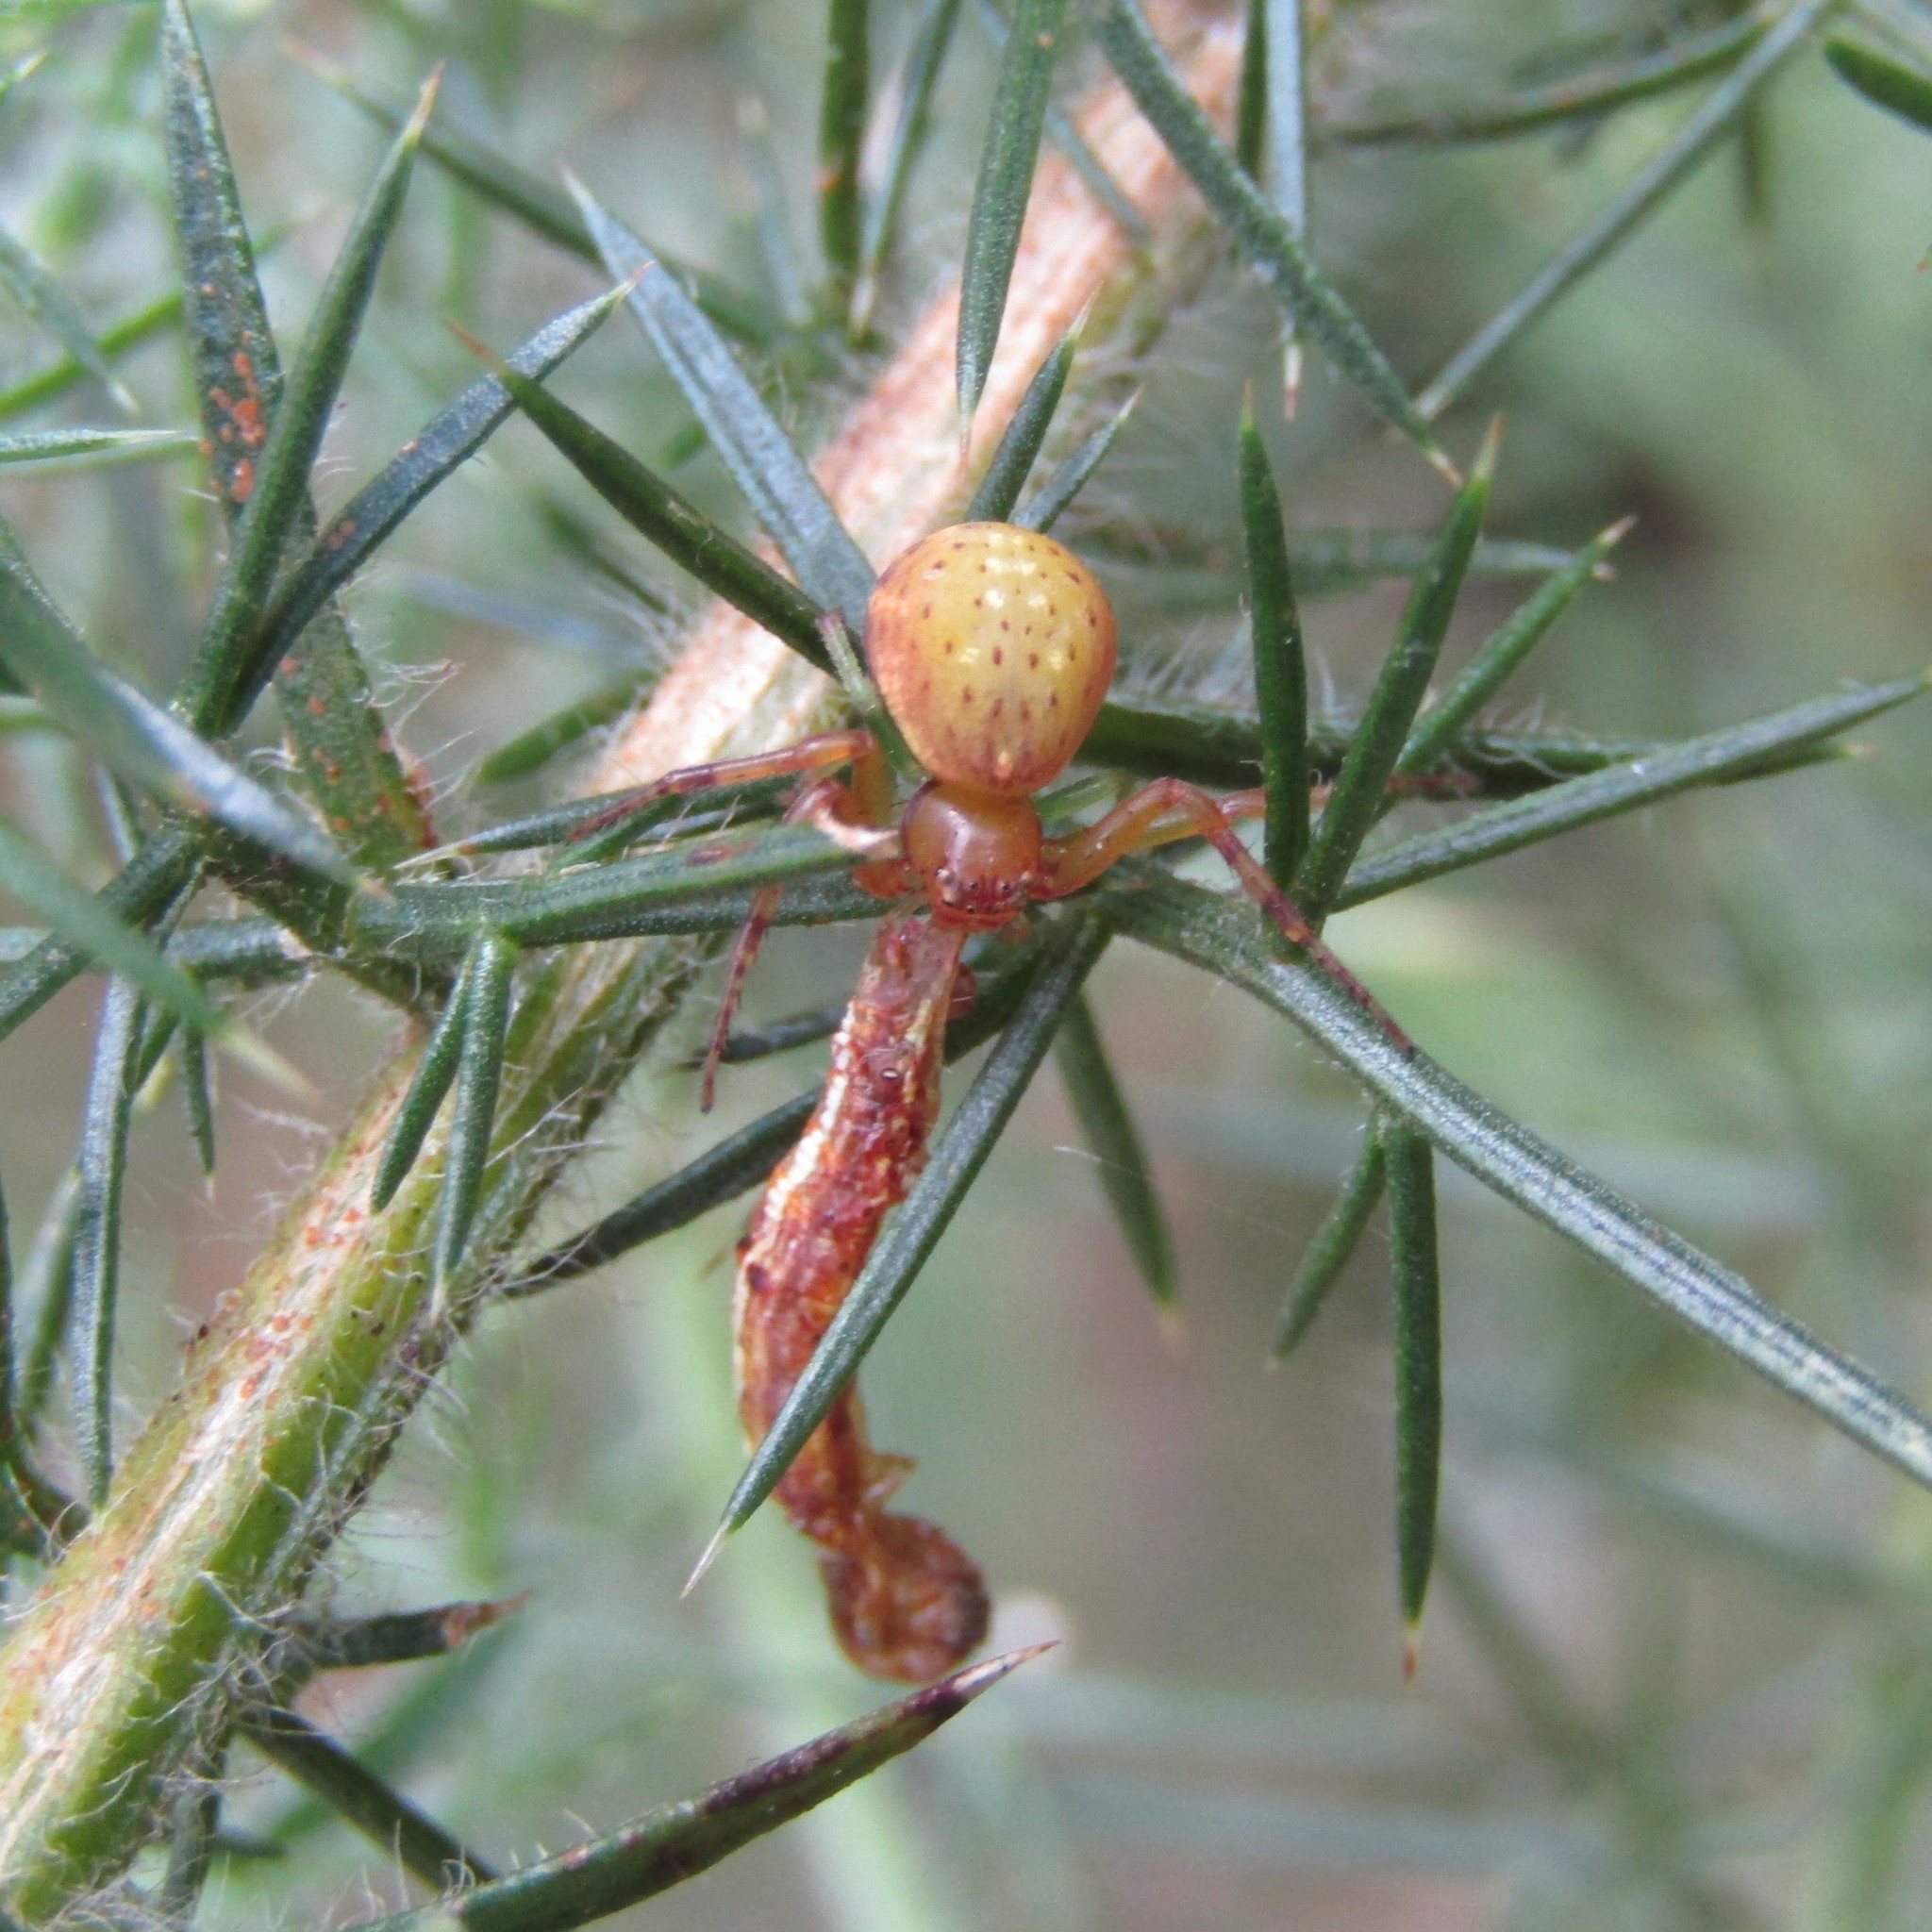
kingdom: Animalia
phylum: Arthropoda
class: Arachnida
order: Araneae
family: Thomisidae
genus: Diaea
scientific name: Diaea ambara
